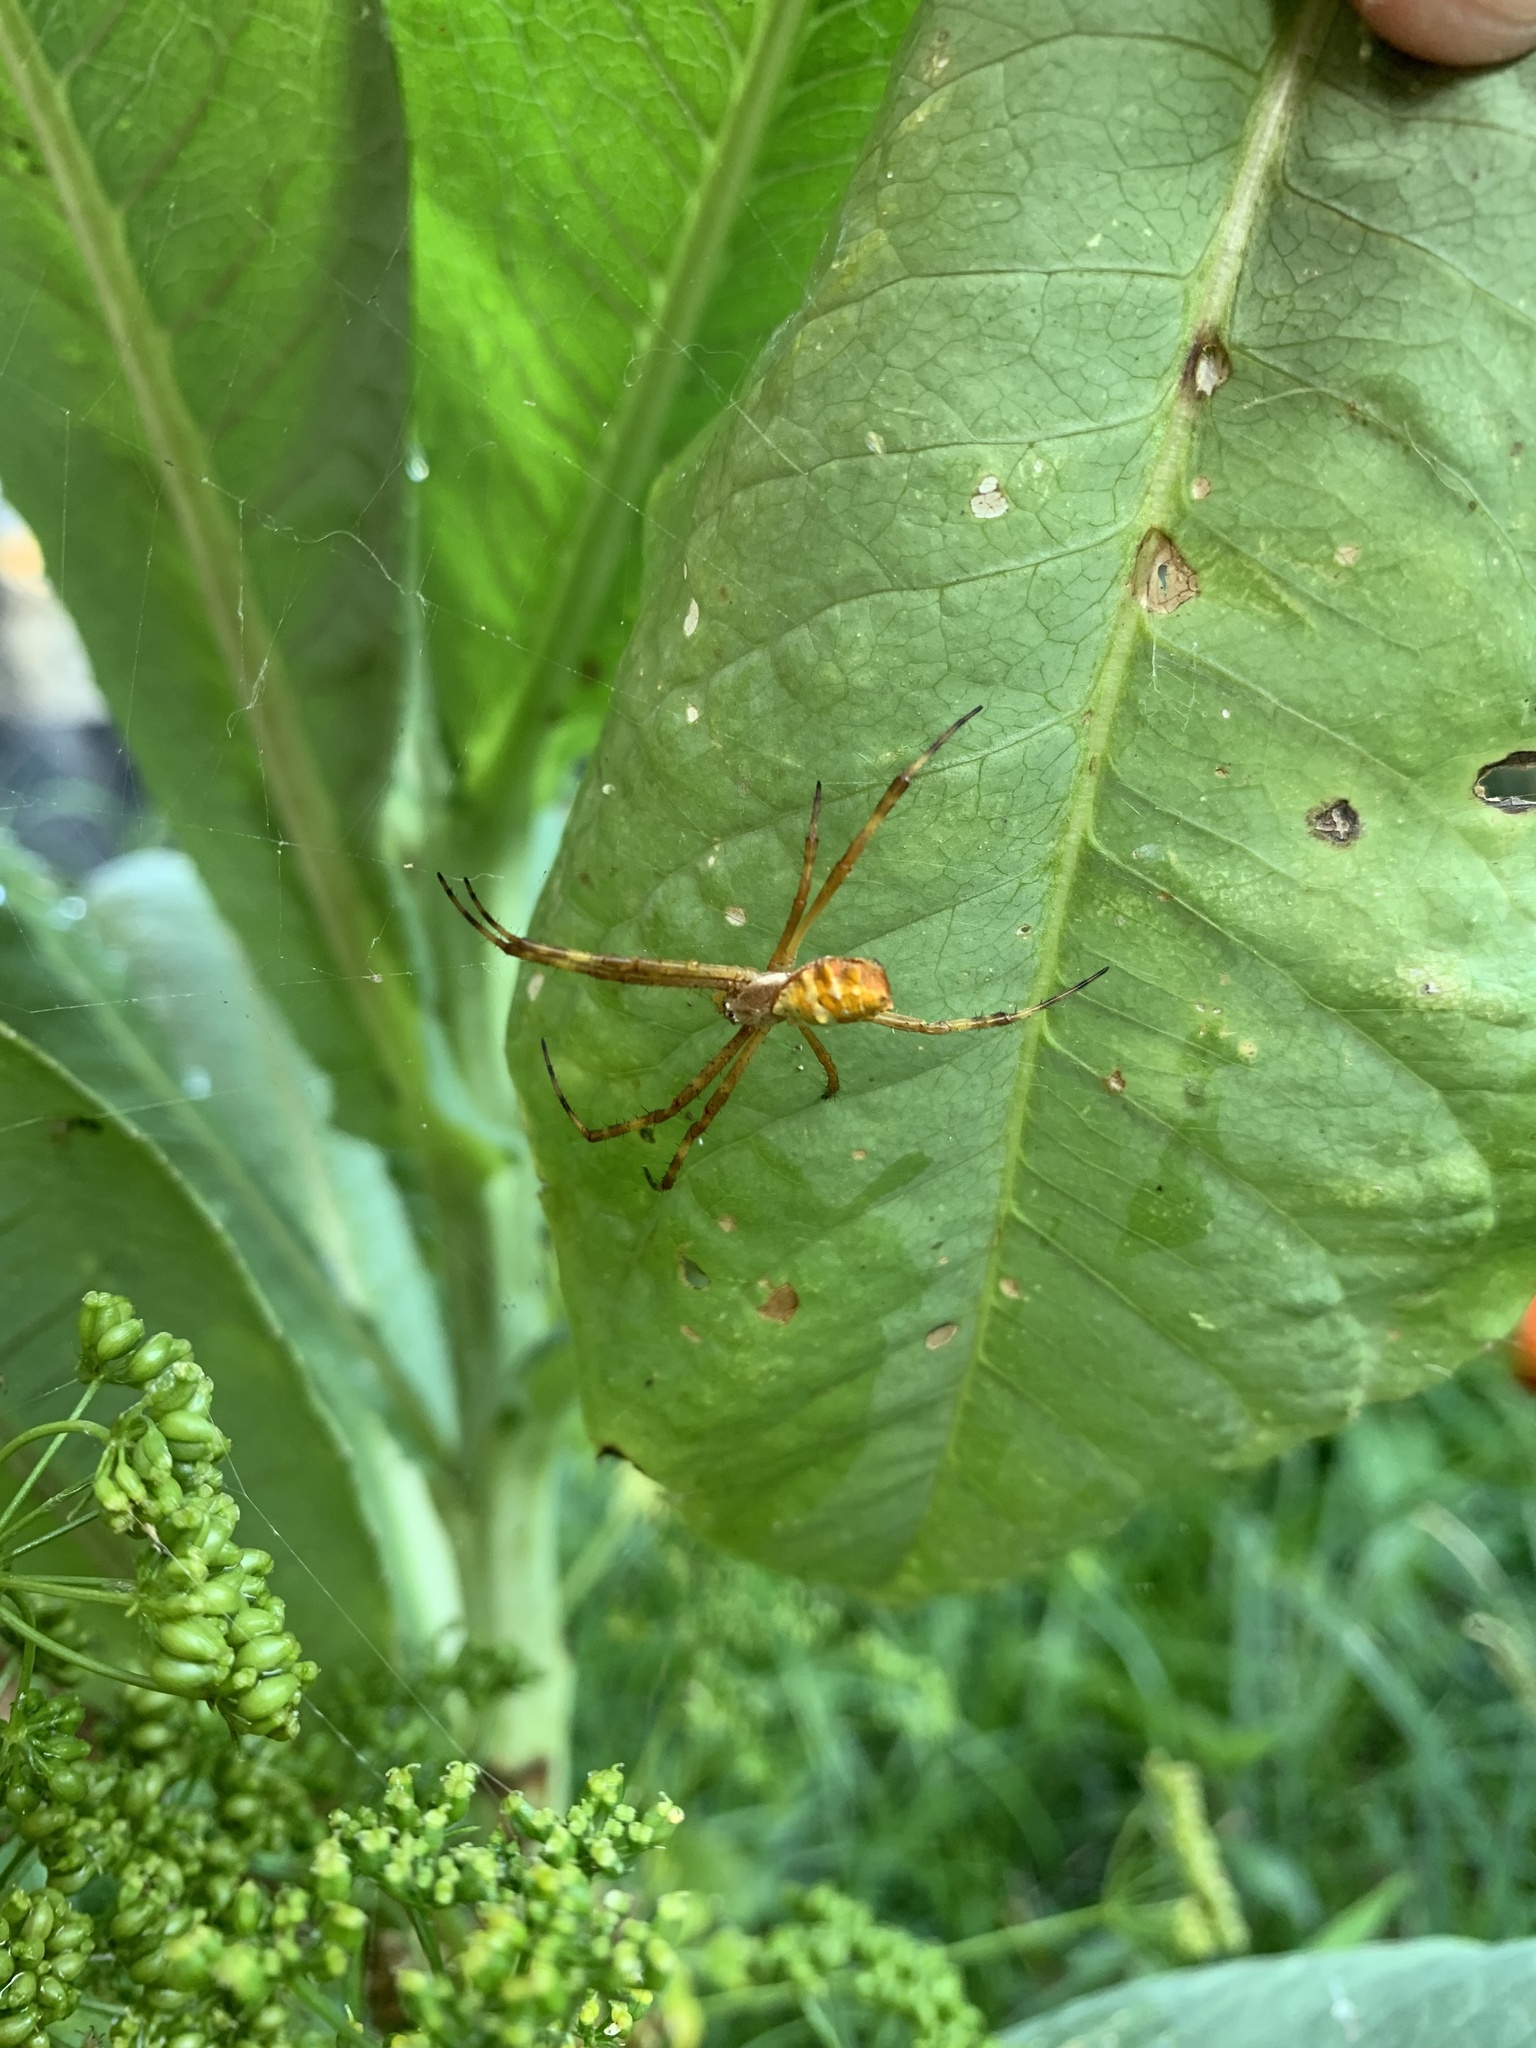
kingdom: Animalia
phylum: Arthropoda
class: Arachnida
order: Araneae
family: Araneidae
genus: Argiope
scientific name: Argiope argentata
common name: Orb weavers
